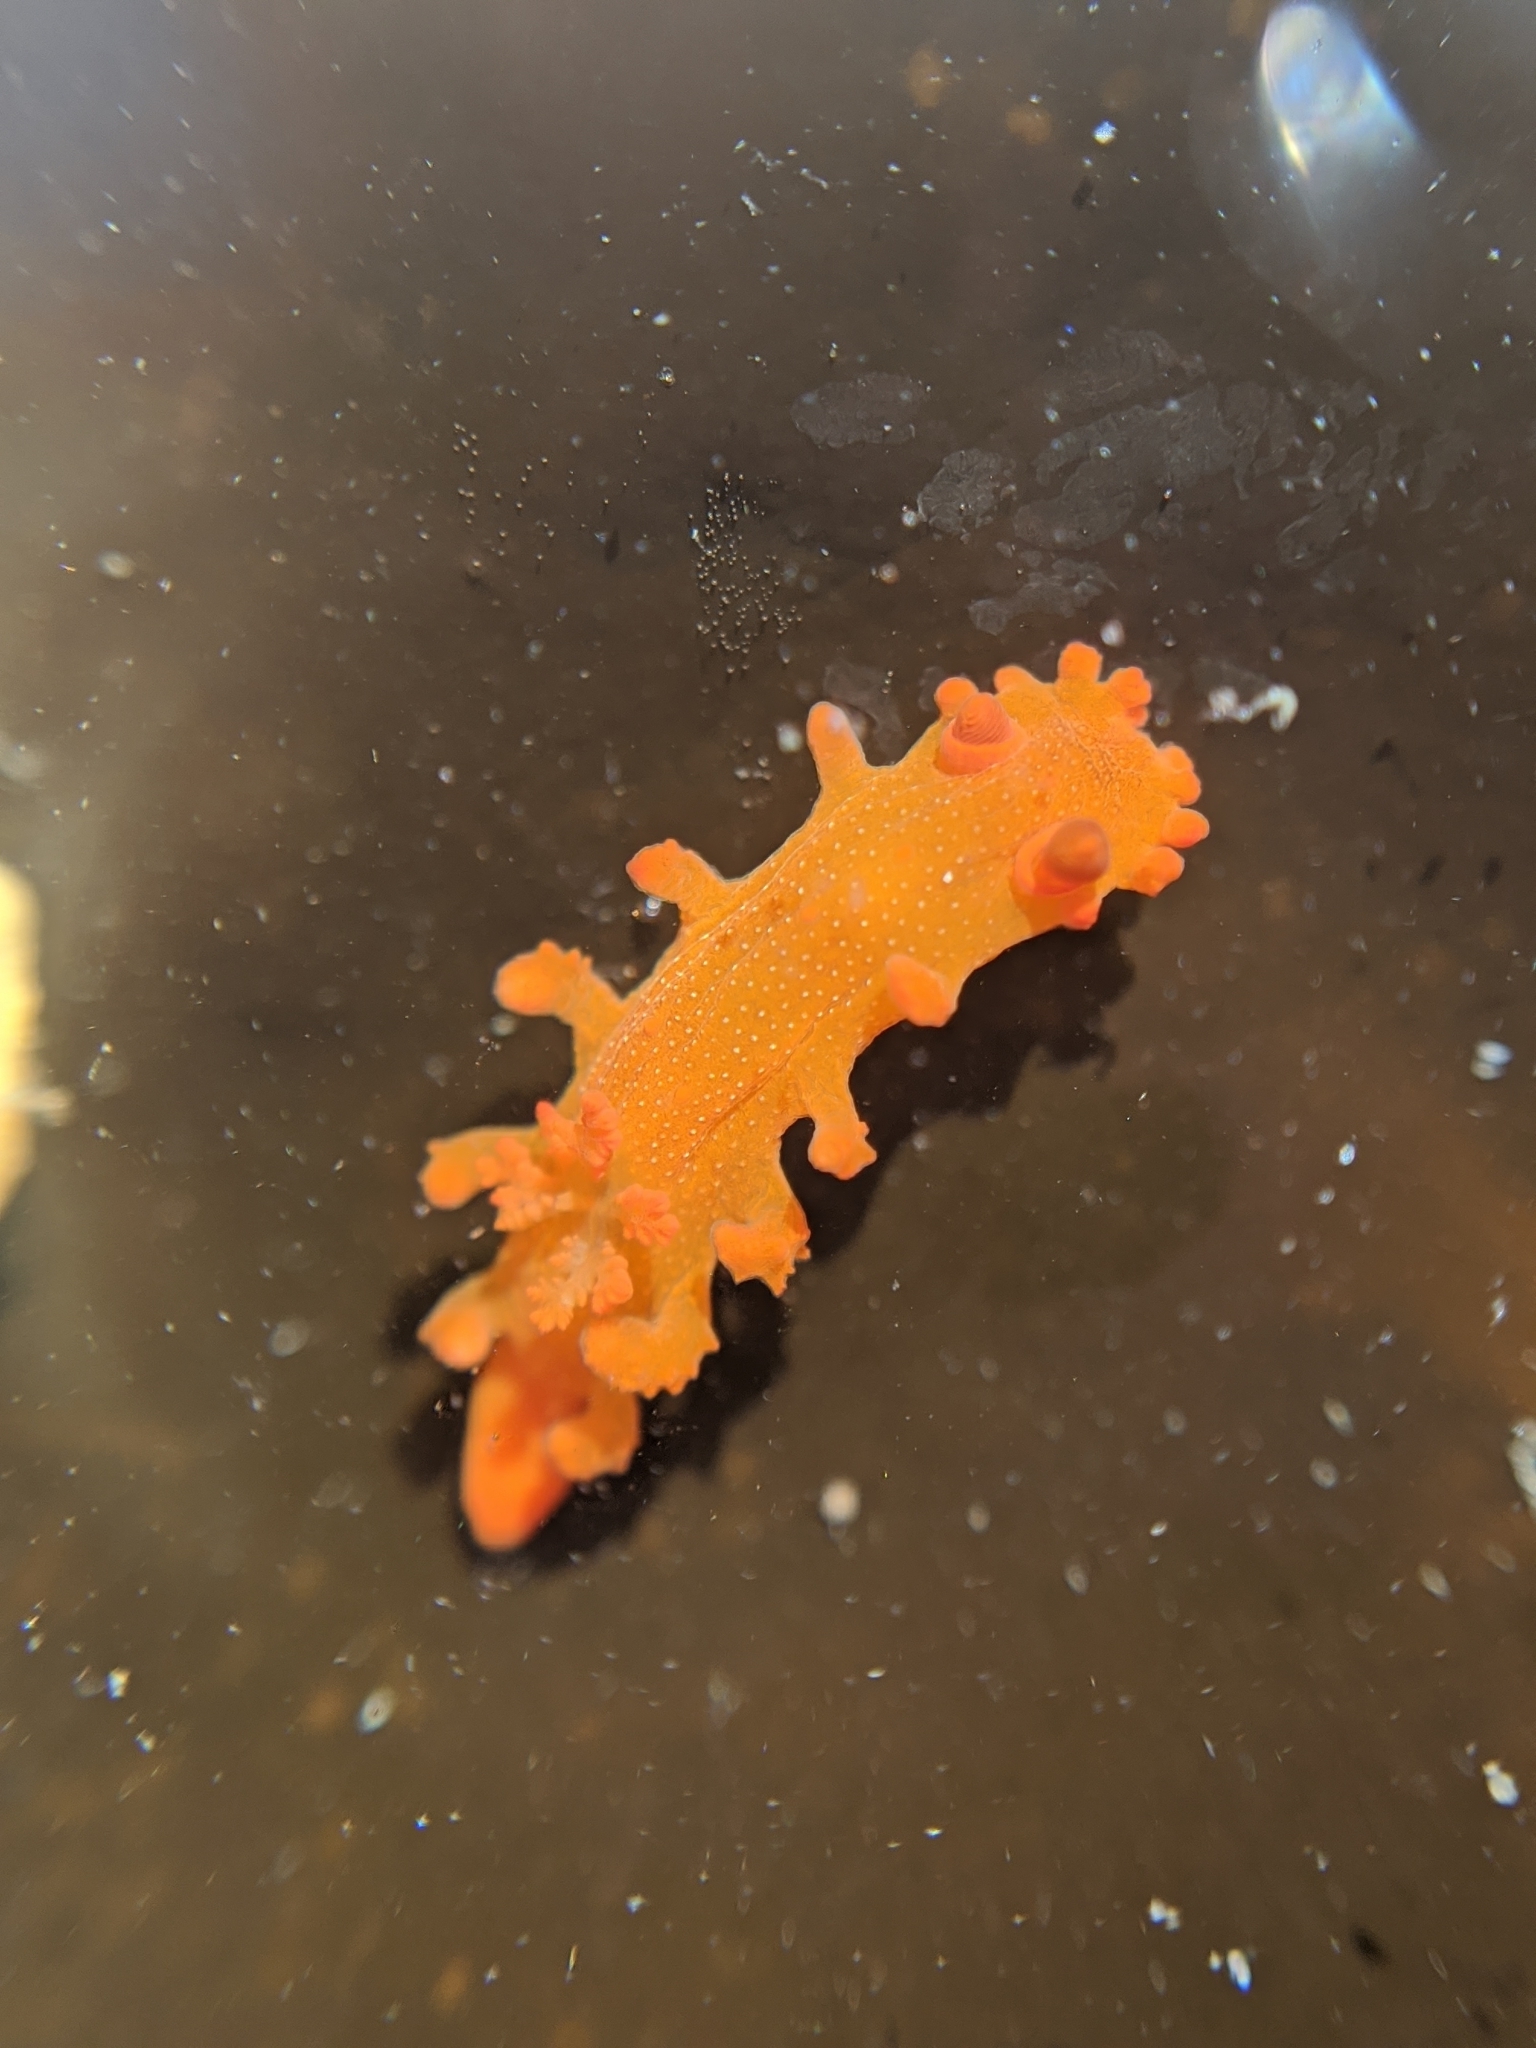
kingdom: Animalia
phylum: Mollusca
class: Gastropoda
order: Nudibranchia
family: Polyceridae
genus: Triopha
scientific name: Triopha maculata
